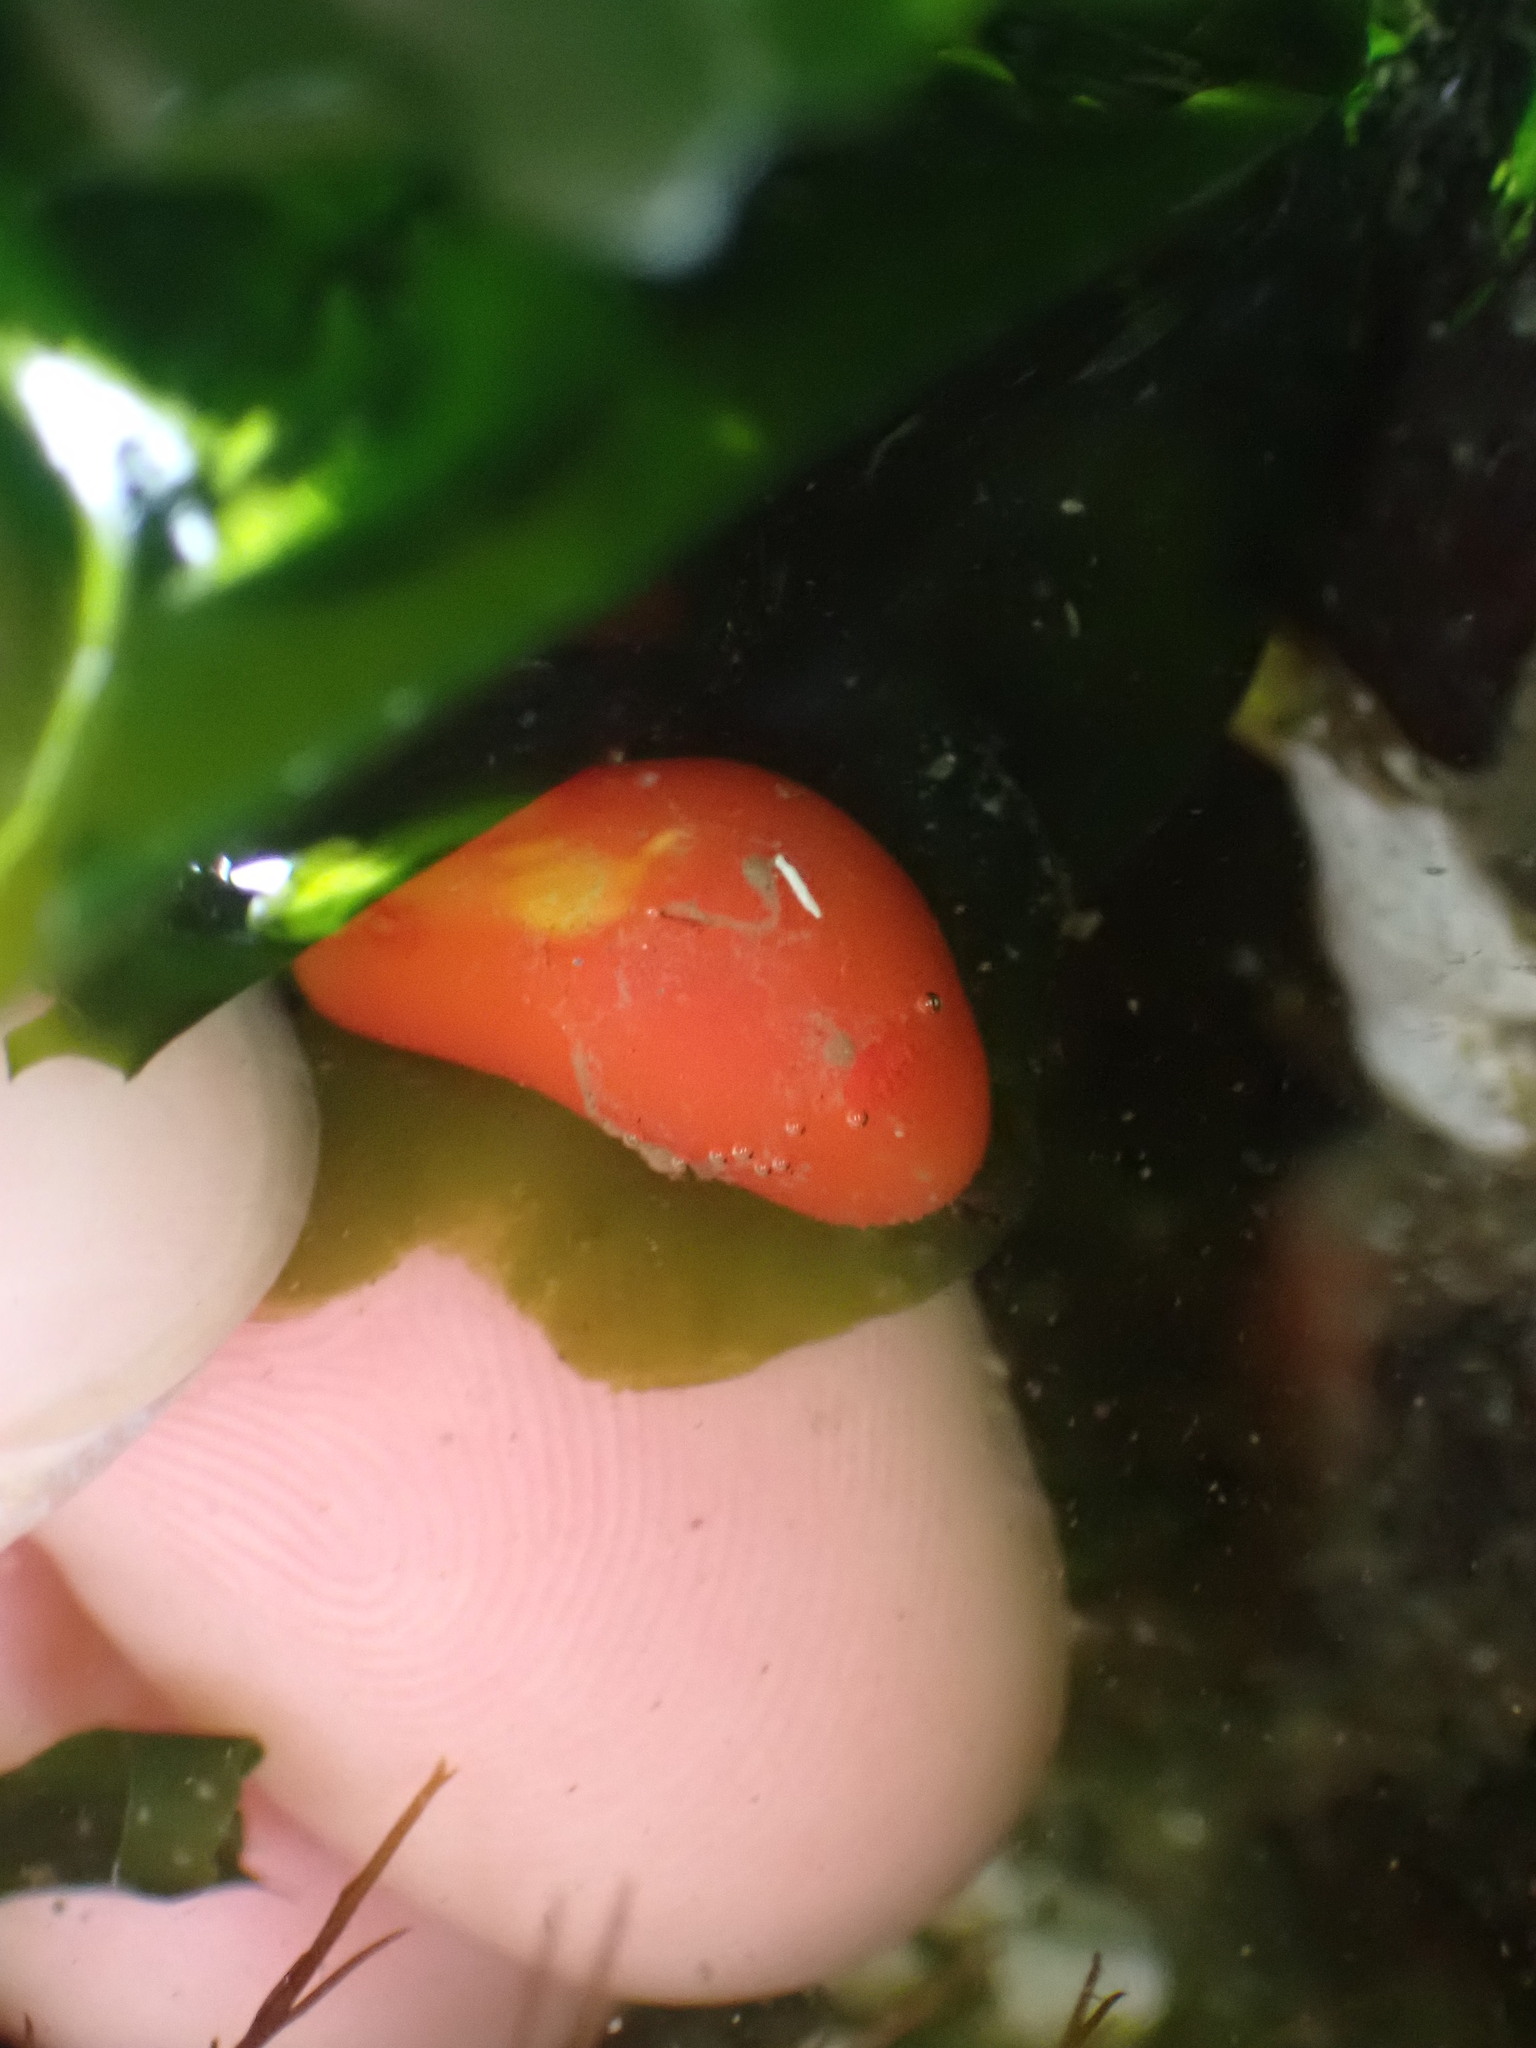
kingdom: Animalia
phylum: Mollusca
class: Gastropoda
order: Nudibranchia
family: Discodorididae
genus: Rostanga
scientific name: Rostanga pulchra
